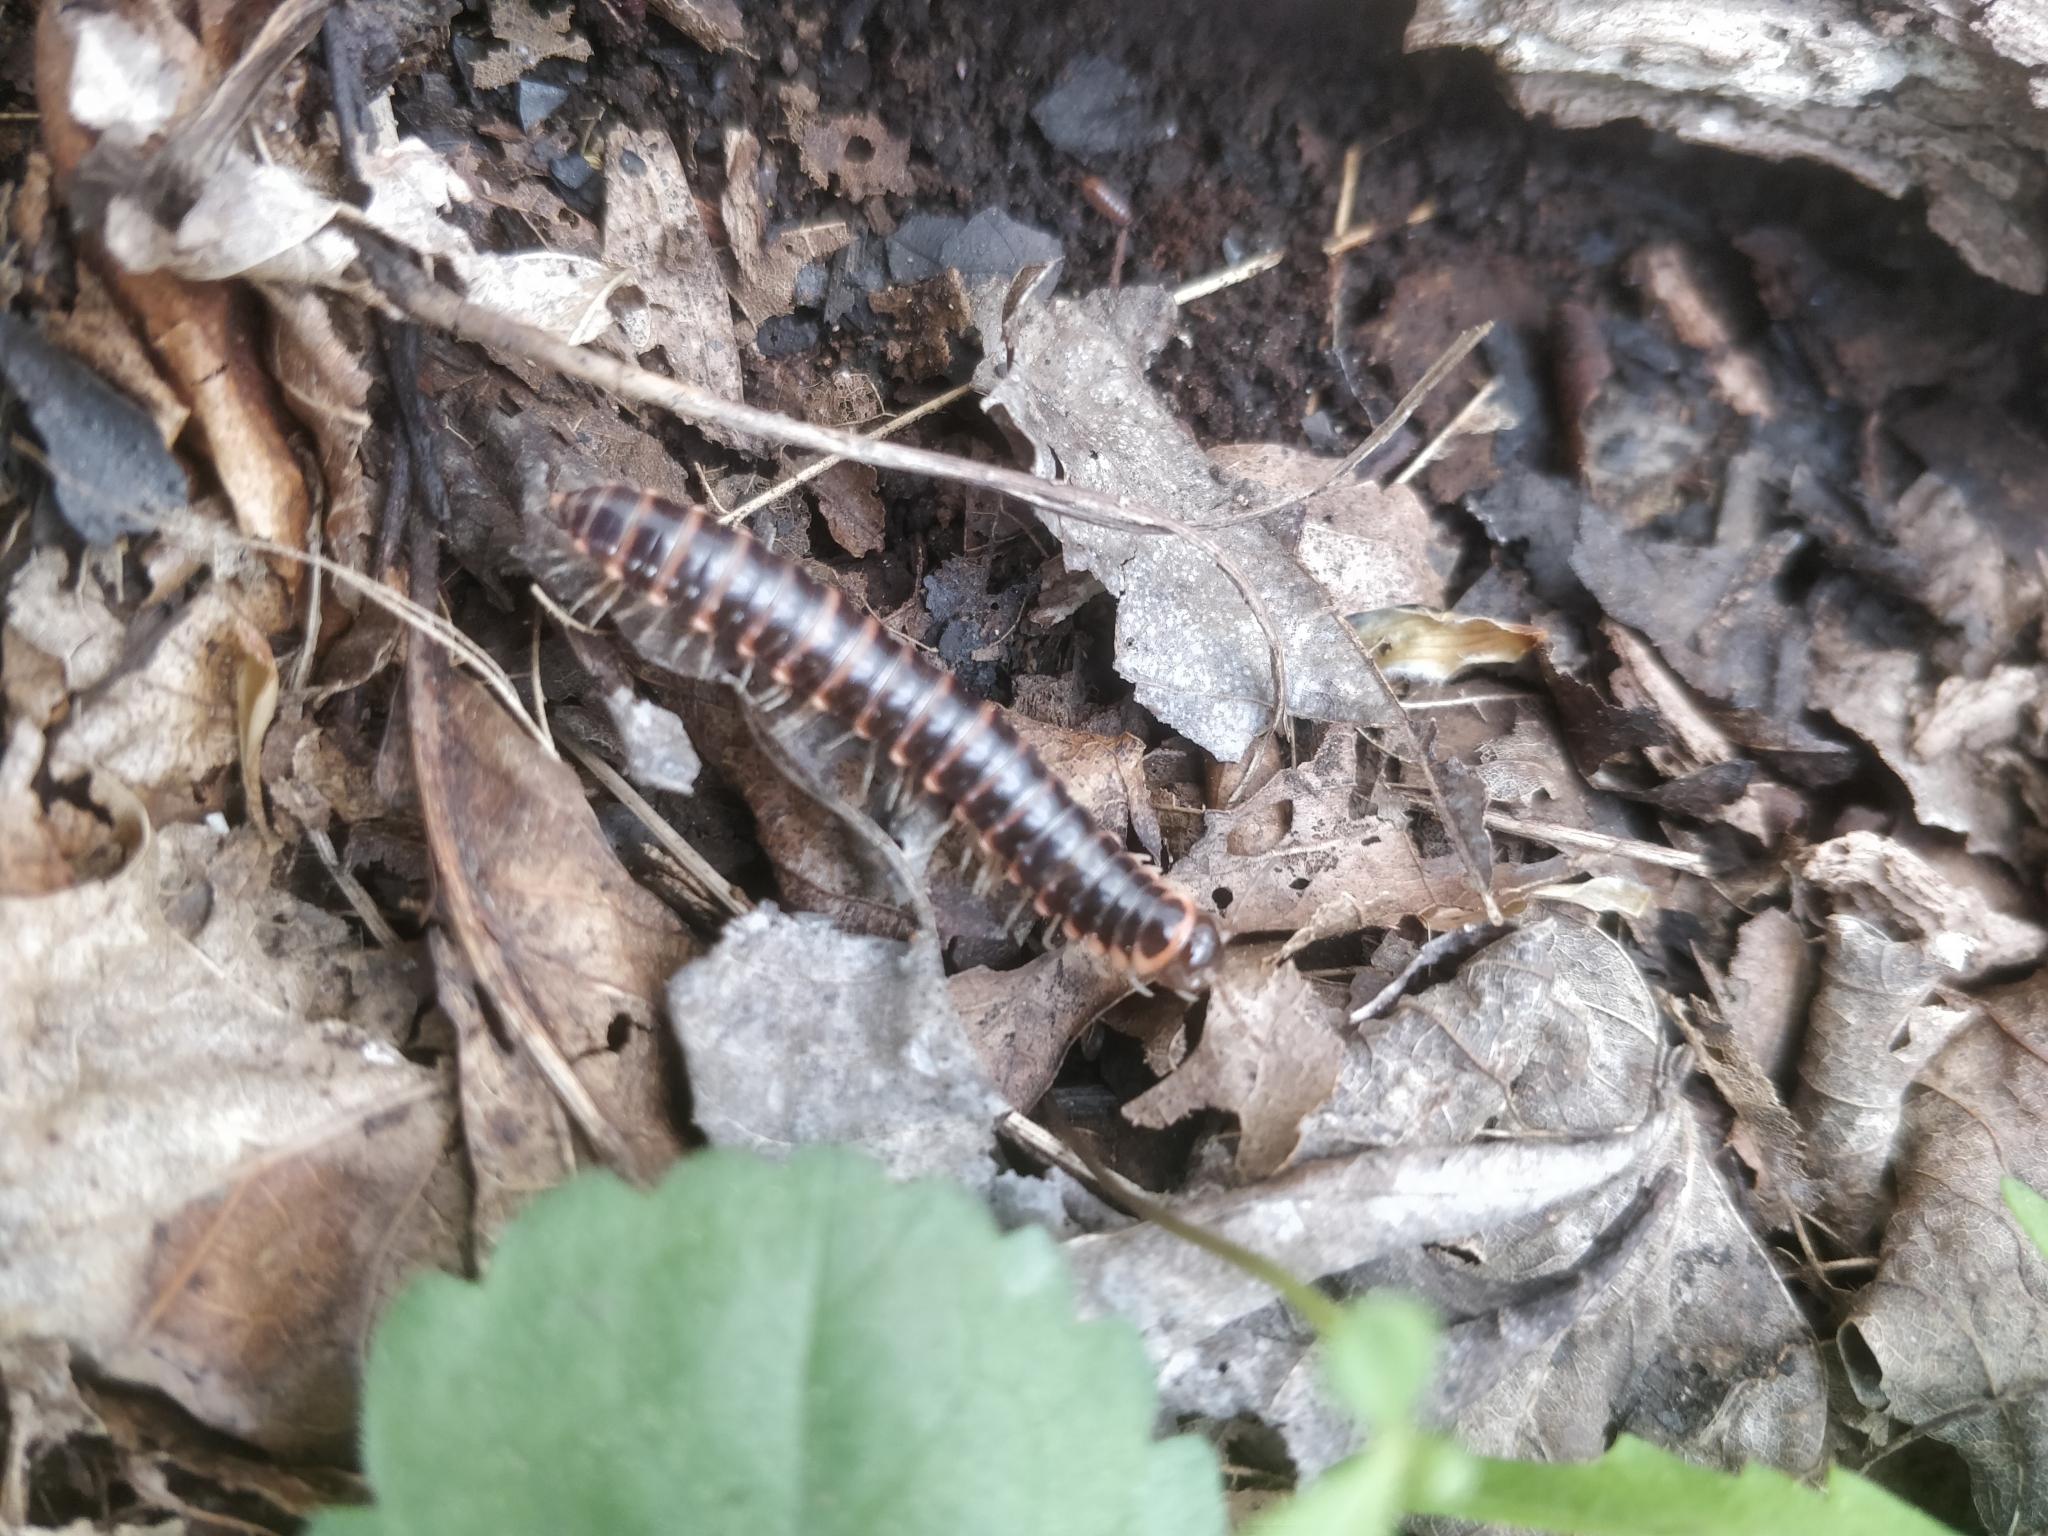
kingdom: Animalia
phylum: Arthropoda
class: Diplopoda
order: Polydesmida
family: Xystodesmidae
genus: Semionellus
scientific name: Semionellus placidus
